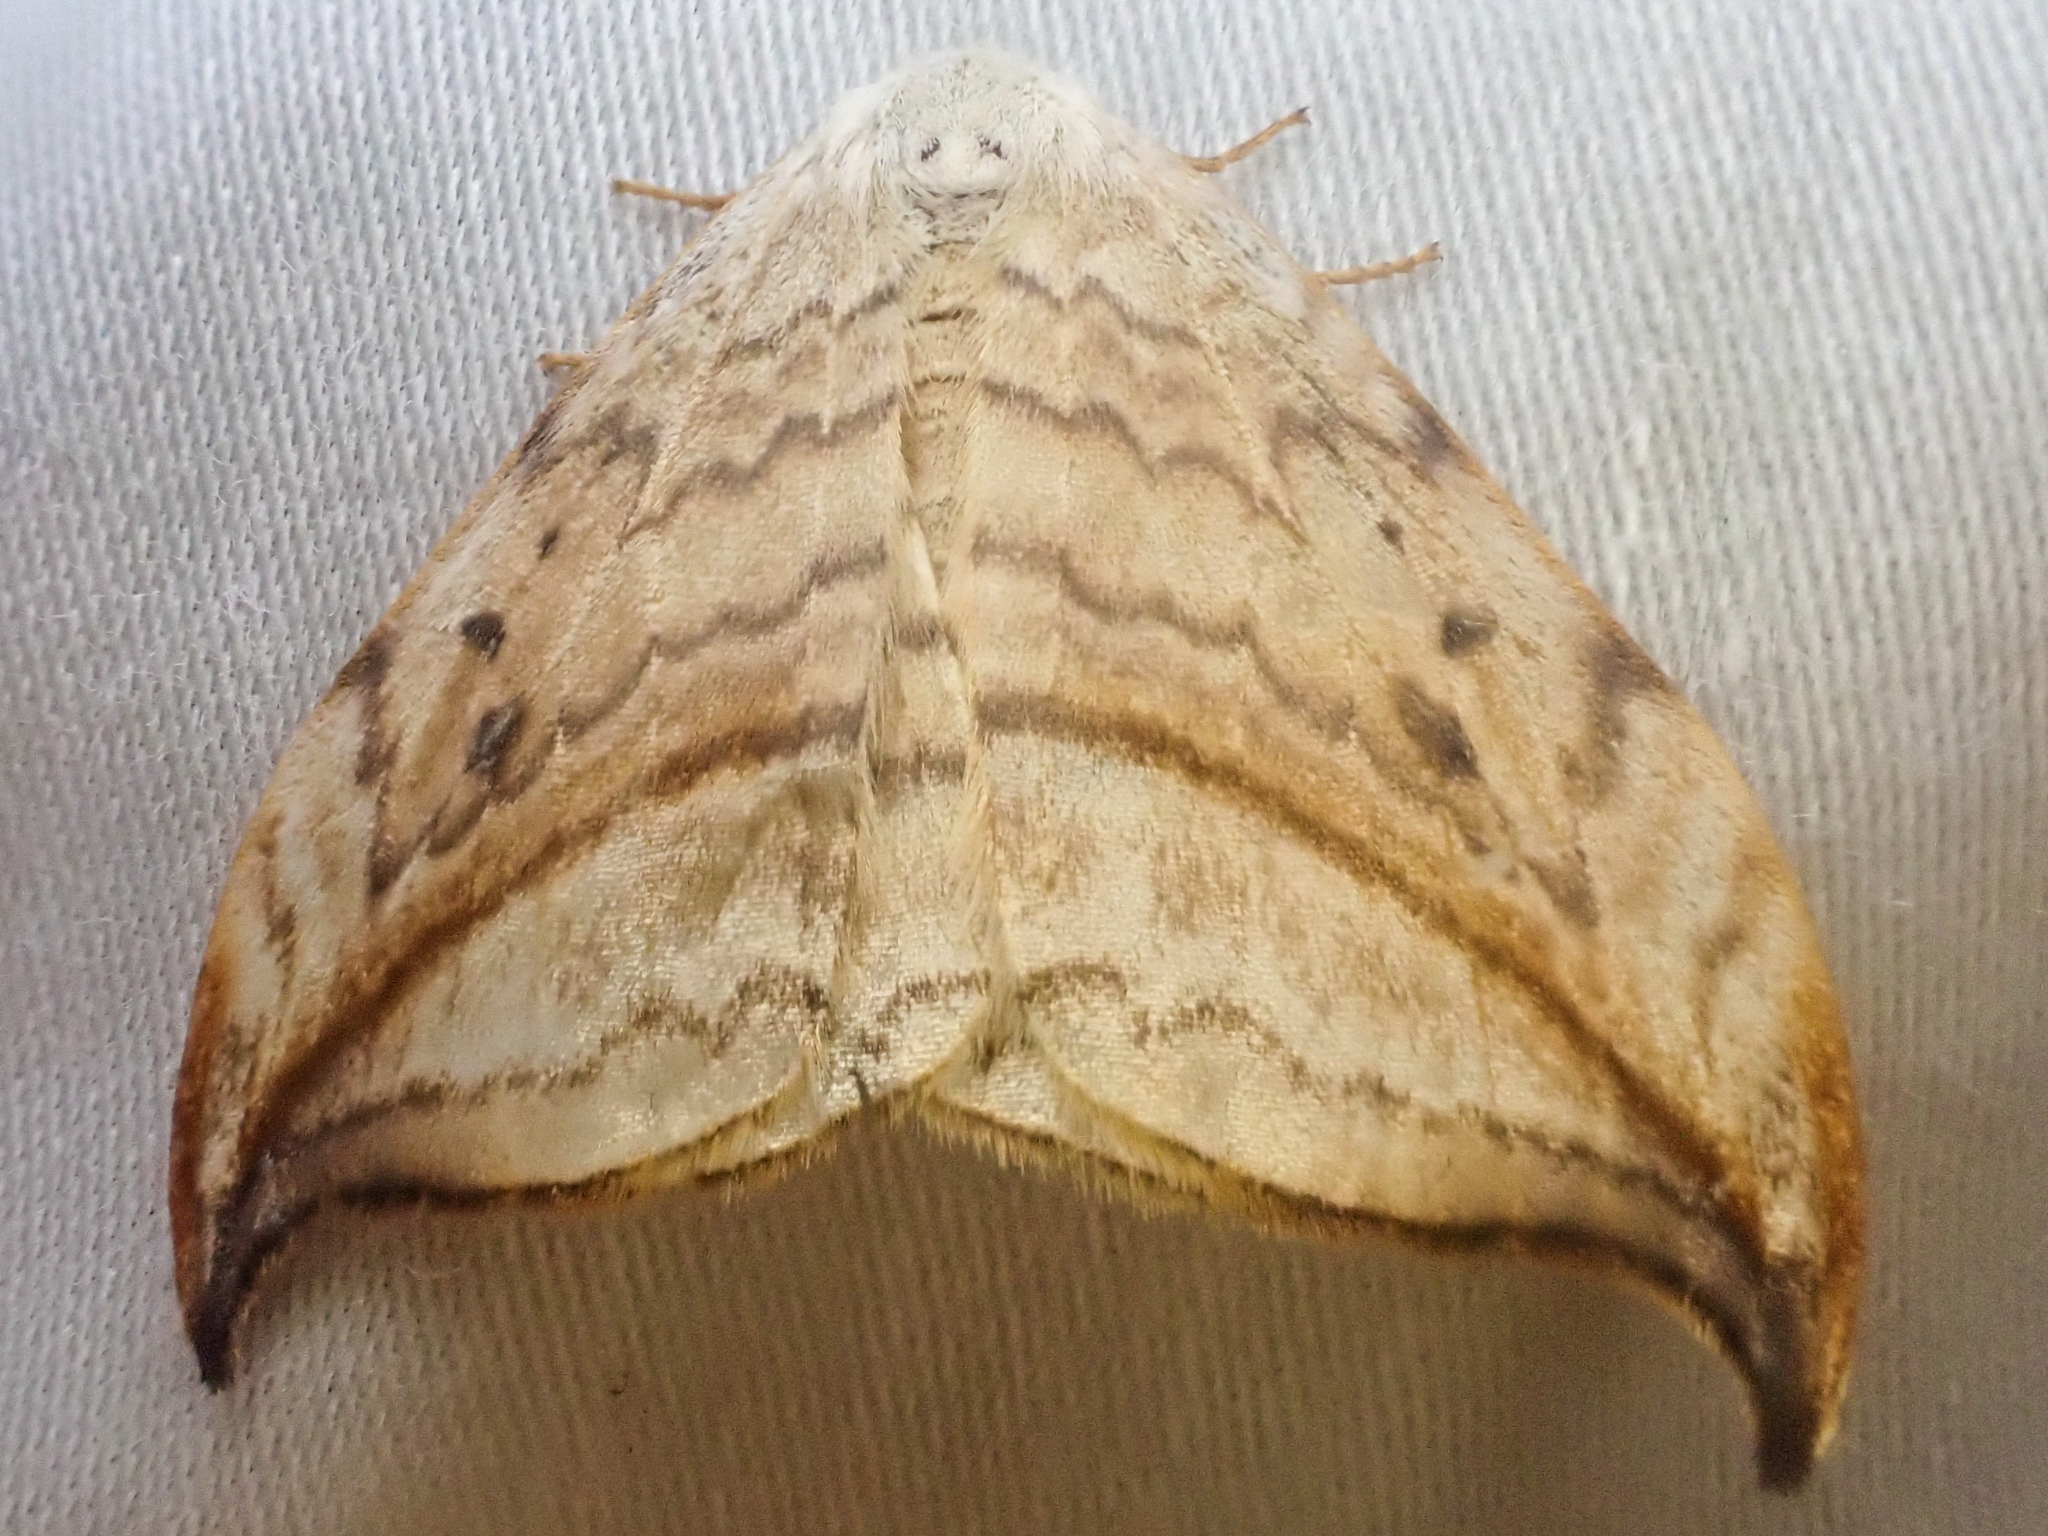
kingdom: Animalia
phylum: Arthropoda
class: Insecta
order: Lepidoptera
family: Drepanidae
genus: Drepana
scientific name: Drepana arcuata
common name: Arched hooktip moth
